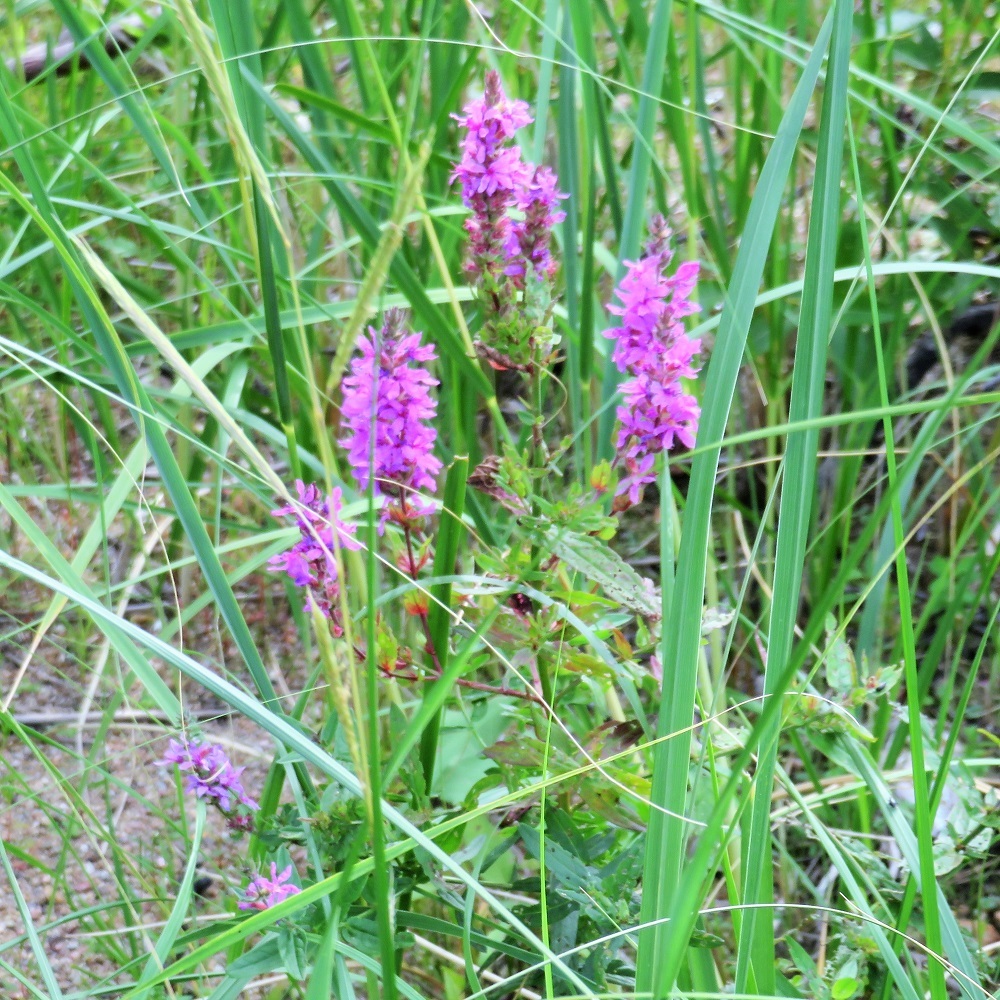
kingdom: Plantae
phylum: Tracheophyta
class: Magnoliopsida
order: Myrtales
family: Lythraceae
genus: Lythrum
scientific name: Lythrum salicaria
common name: Purple loosestrife
